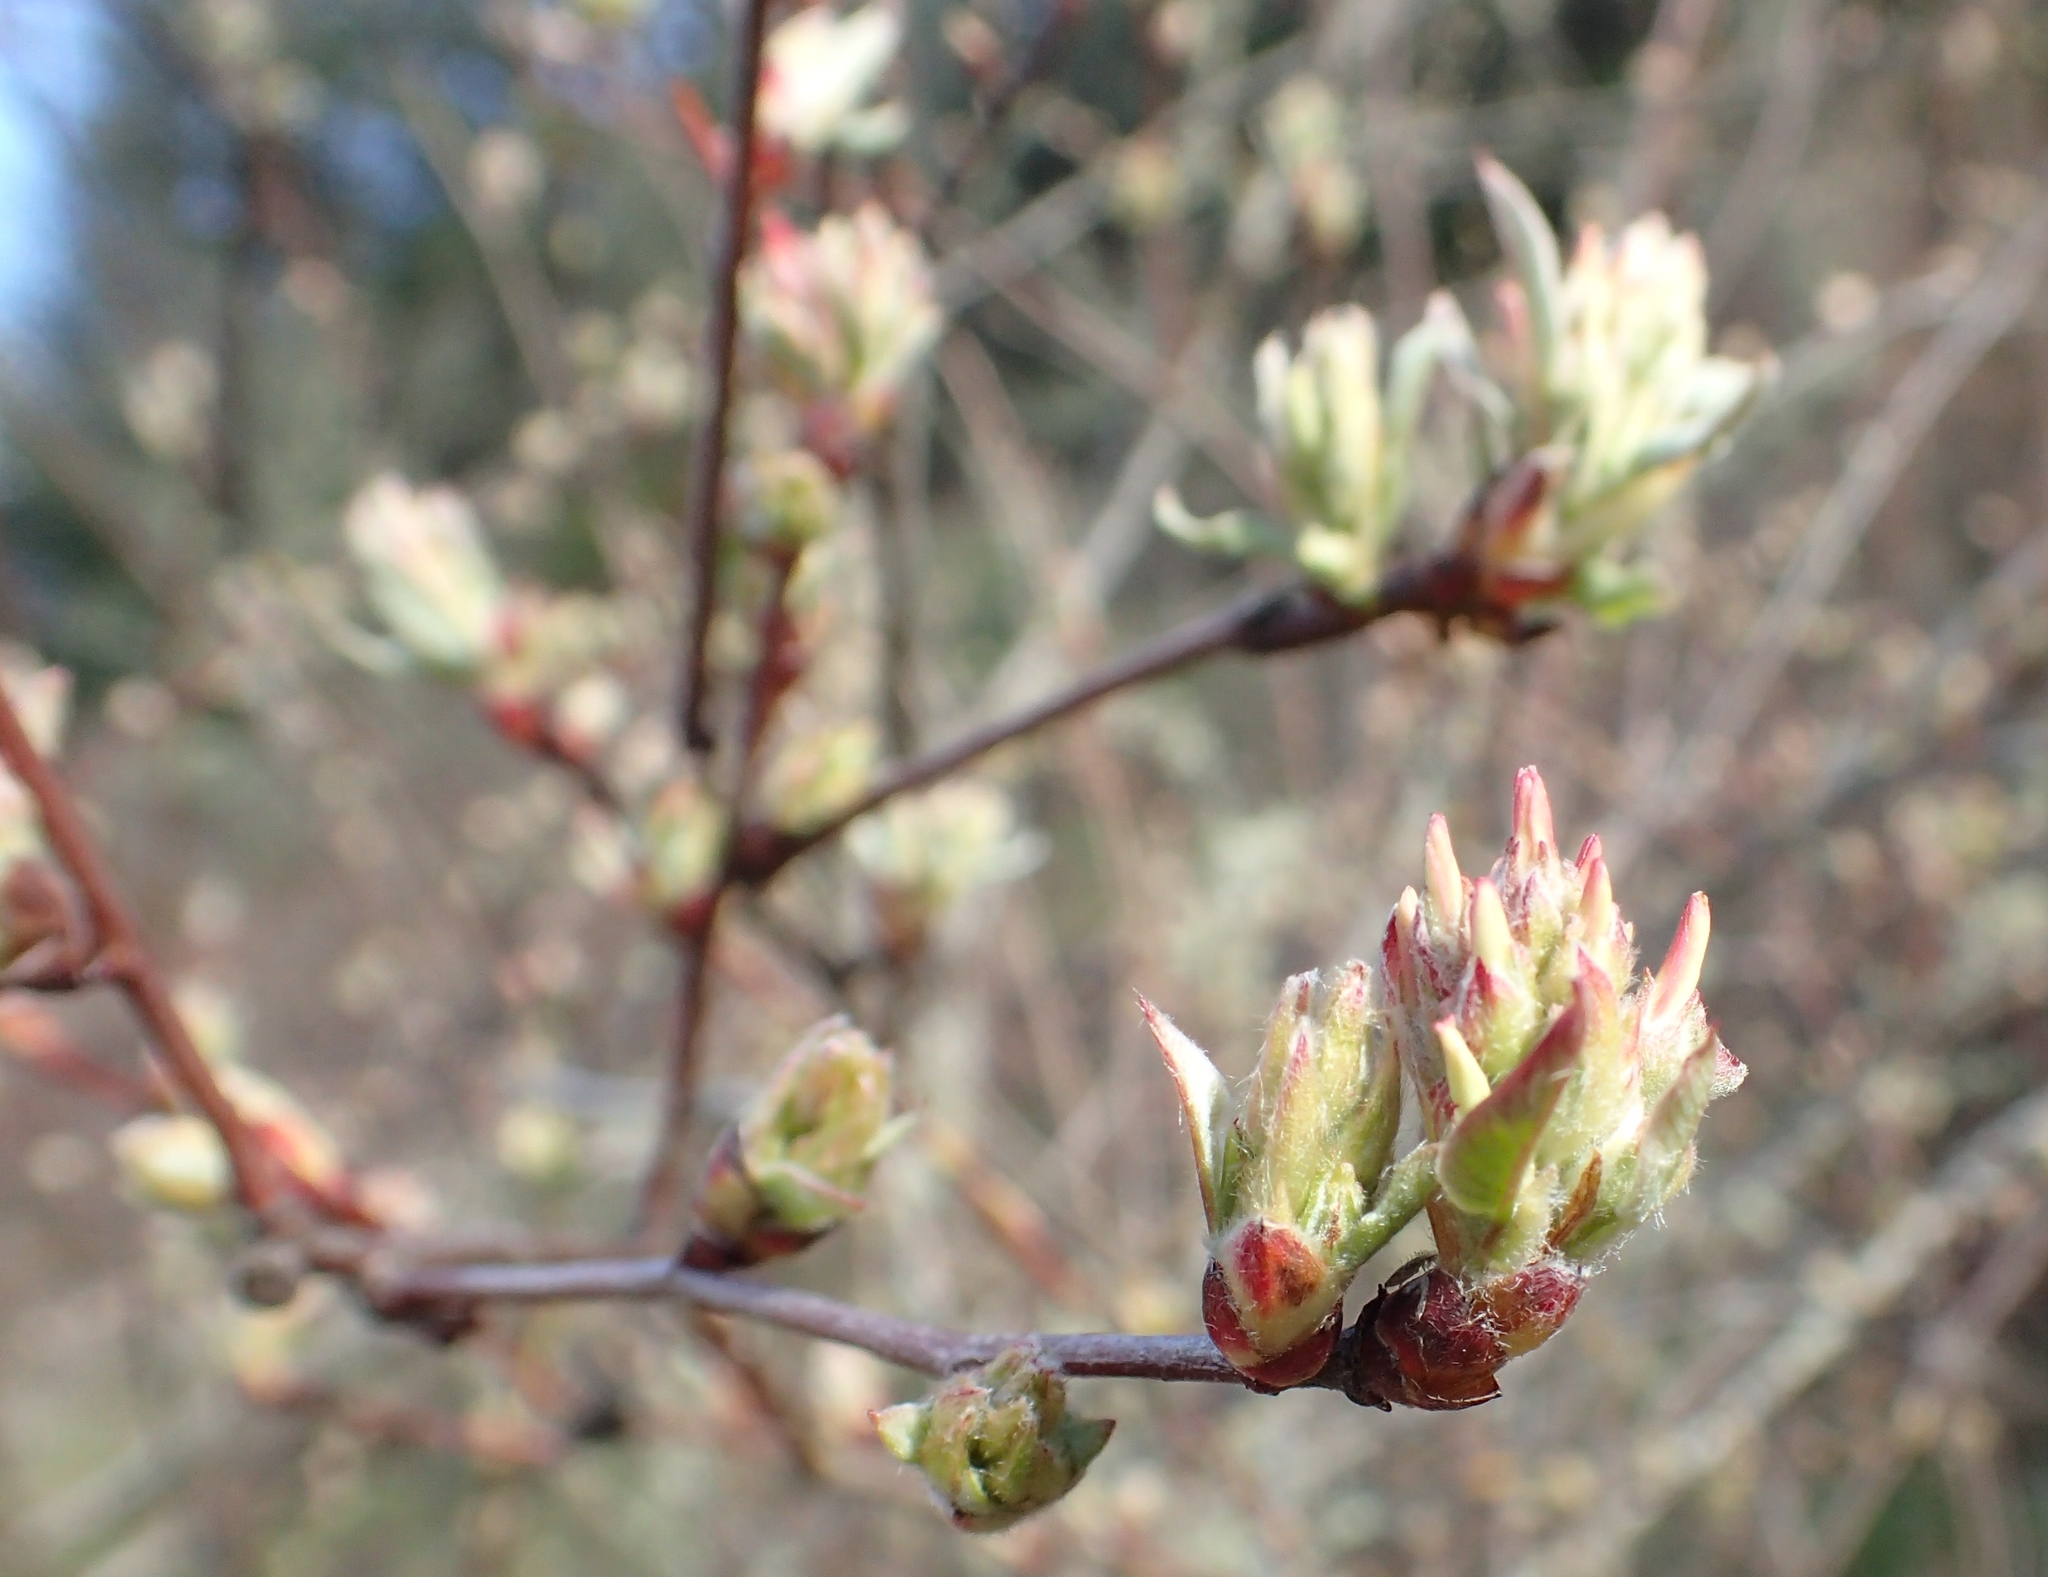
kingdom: Plantae
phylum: Tracheophyta
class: Magnoliopsida
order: Rosales
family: Rosaceae
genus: Amelanchier
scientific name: Amelanchier alnifolia
